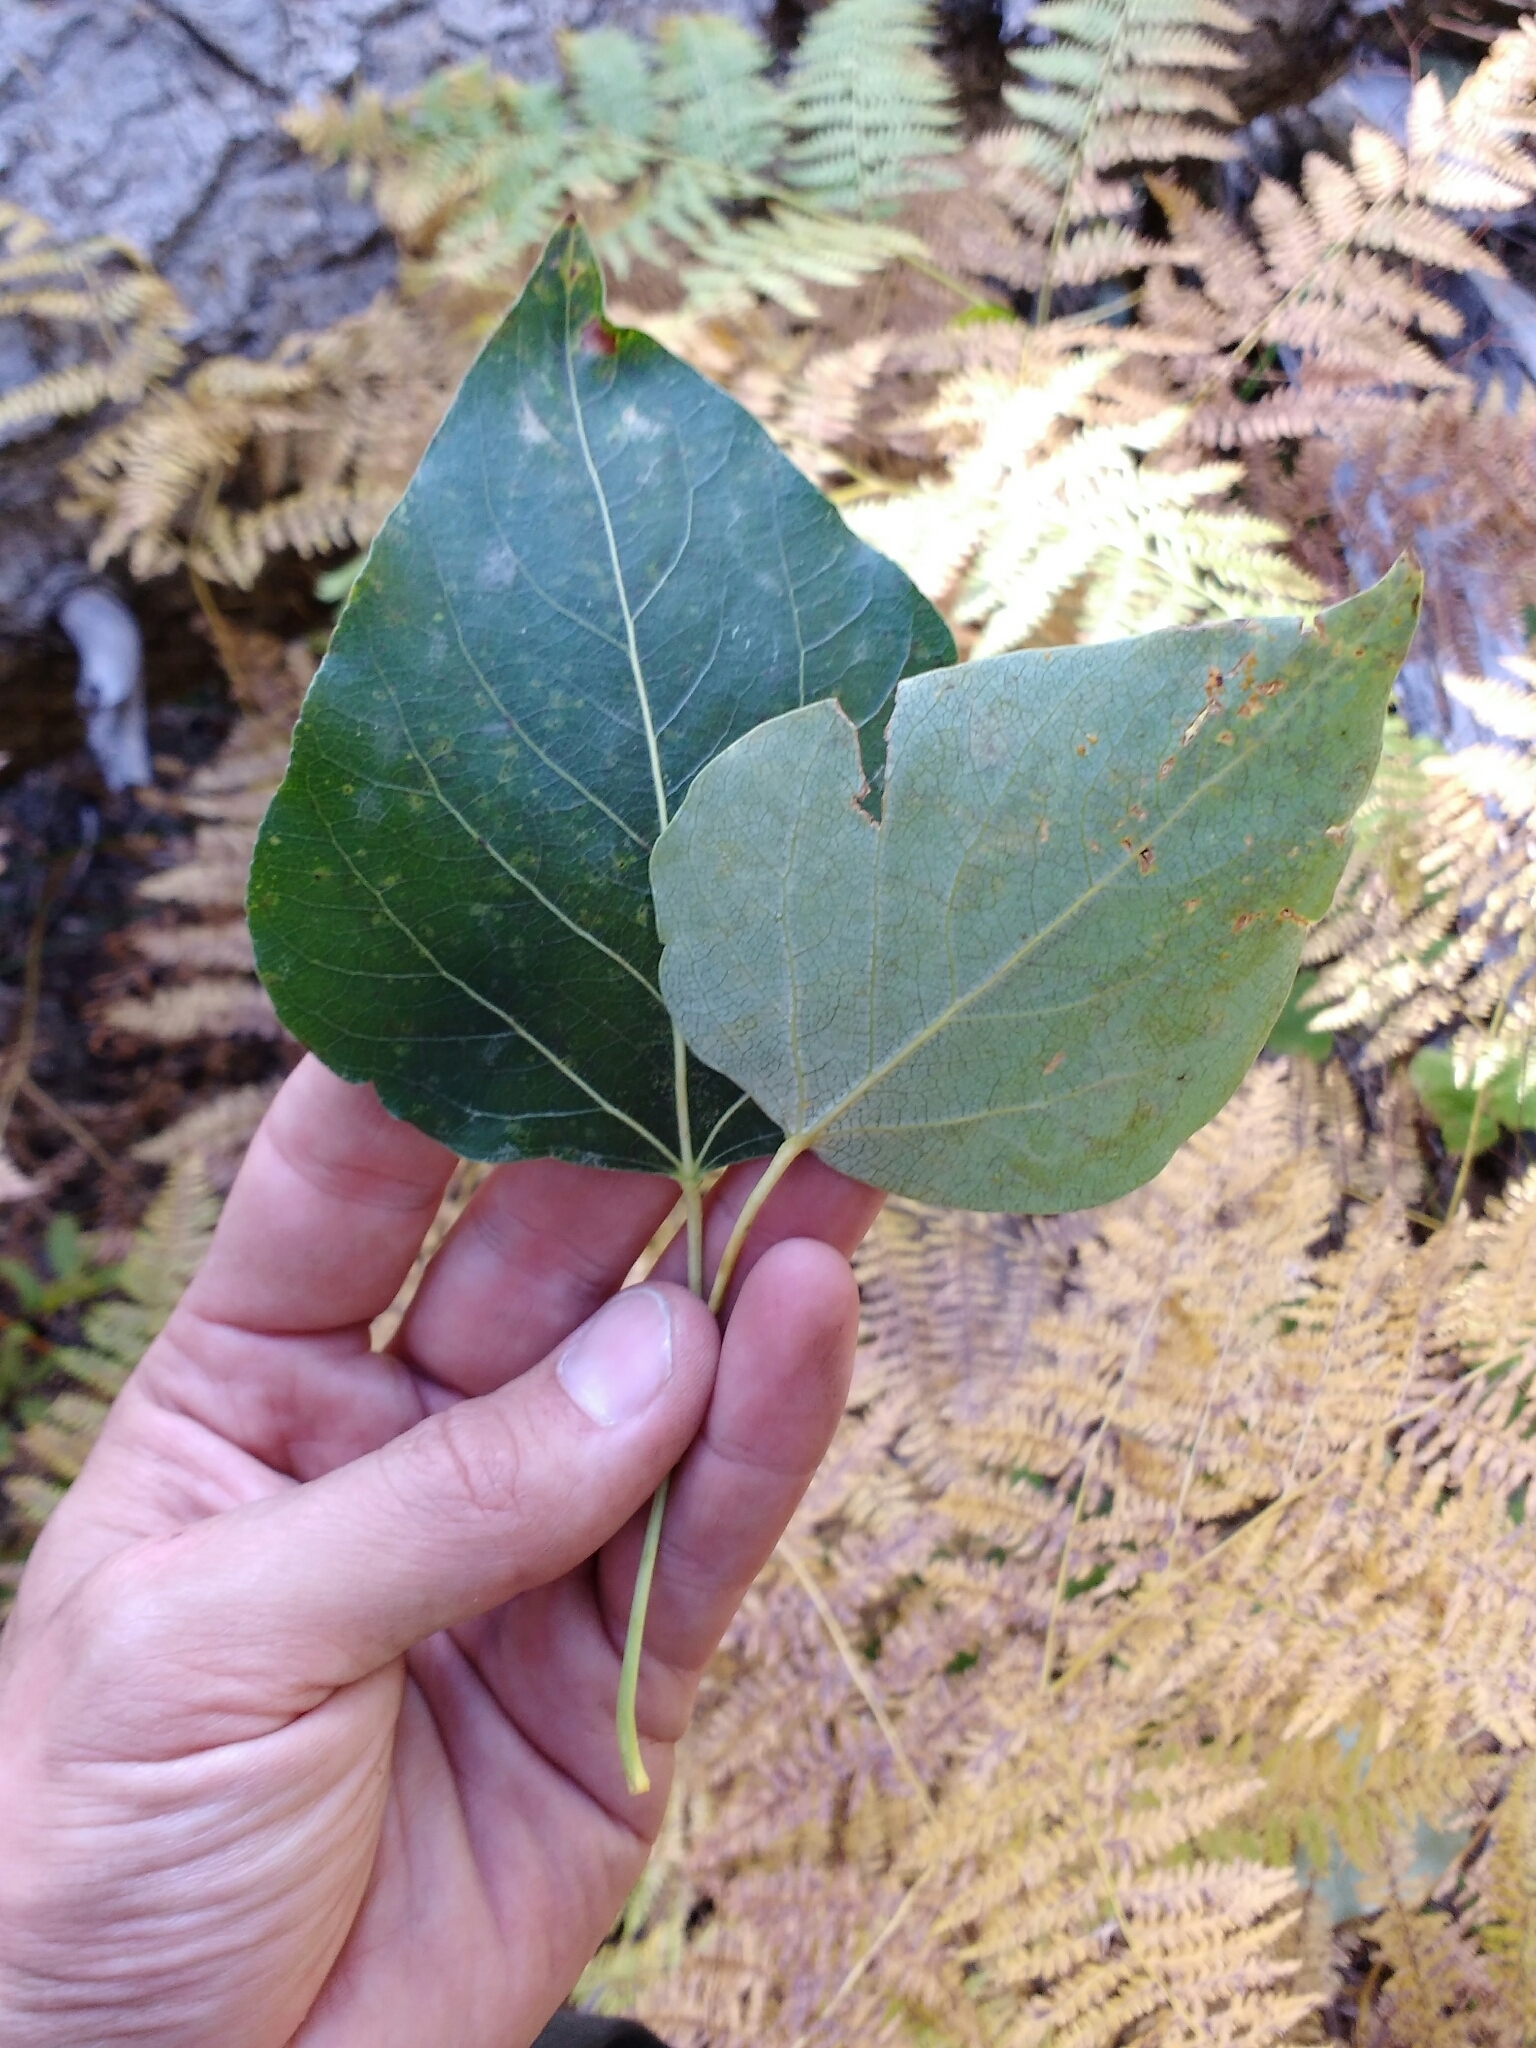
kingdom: Plantae
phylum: Tracheophyta
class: Magnoliopsida
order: Malpighiales
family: Salicaceae
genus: Populus
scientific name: Populus trichocarpa
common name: Black cottonwood
